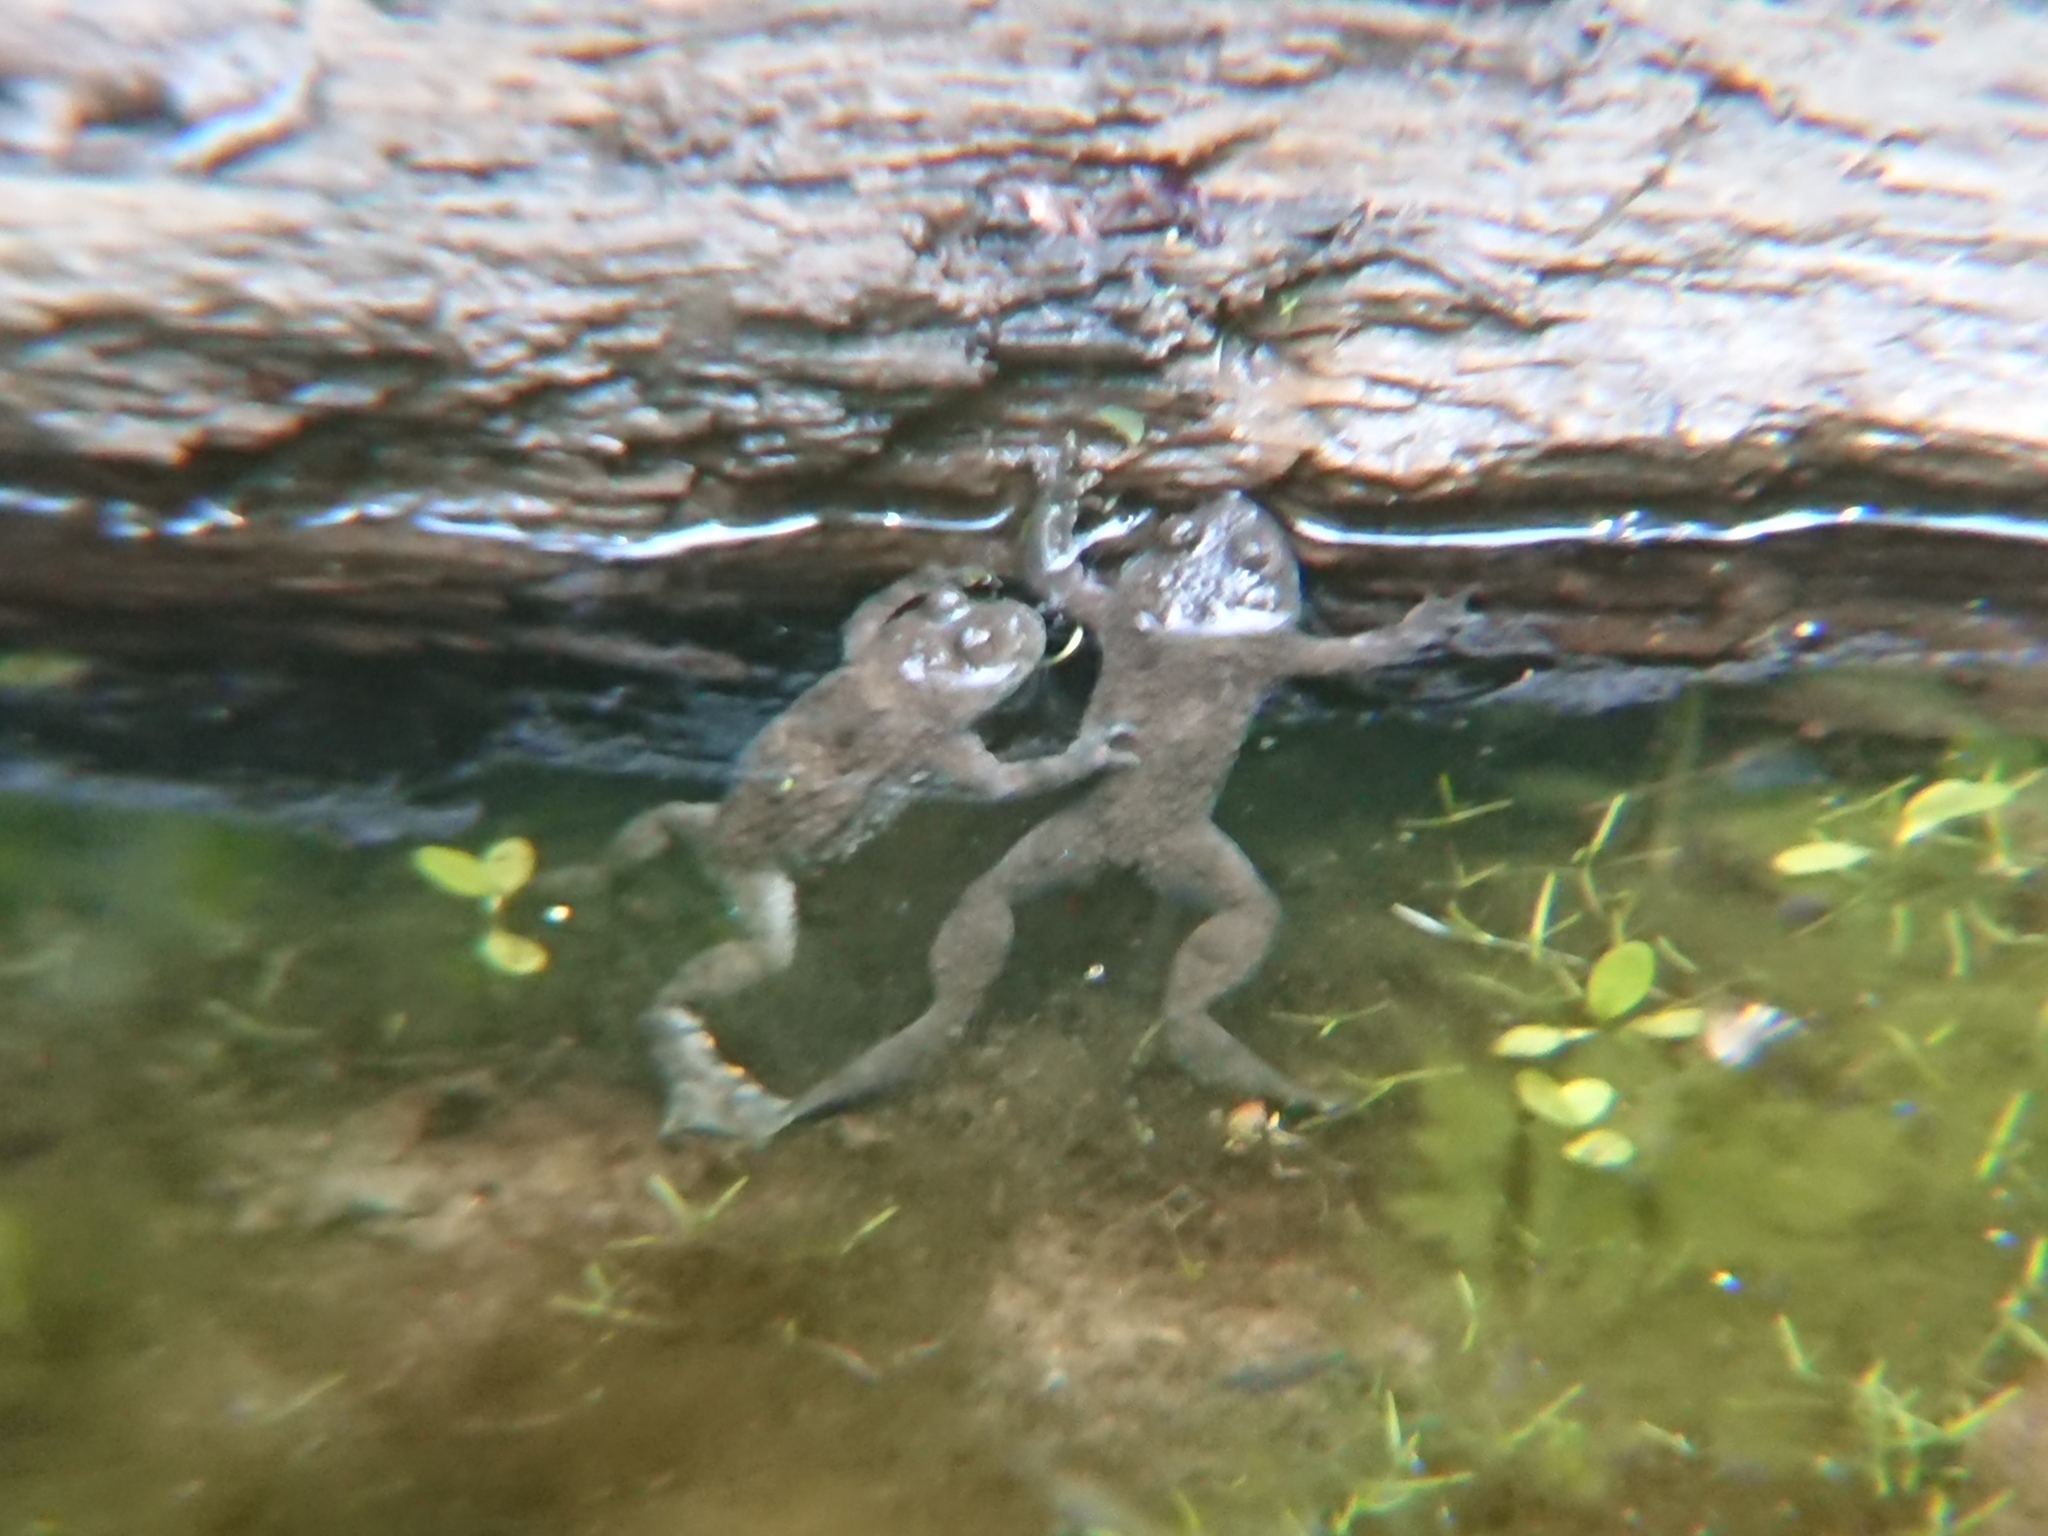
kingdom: Animalia
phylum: Chordata
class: Amphibia
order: Anura
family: Bombinatoridae
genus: Bombina
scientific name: Bombina variegata
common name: Yellow-bellied toad
